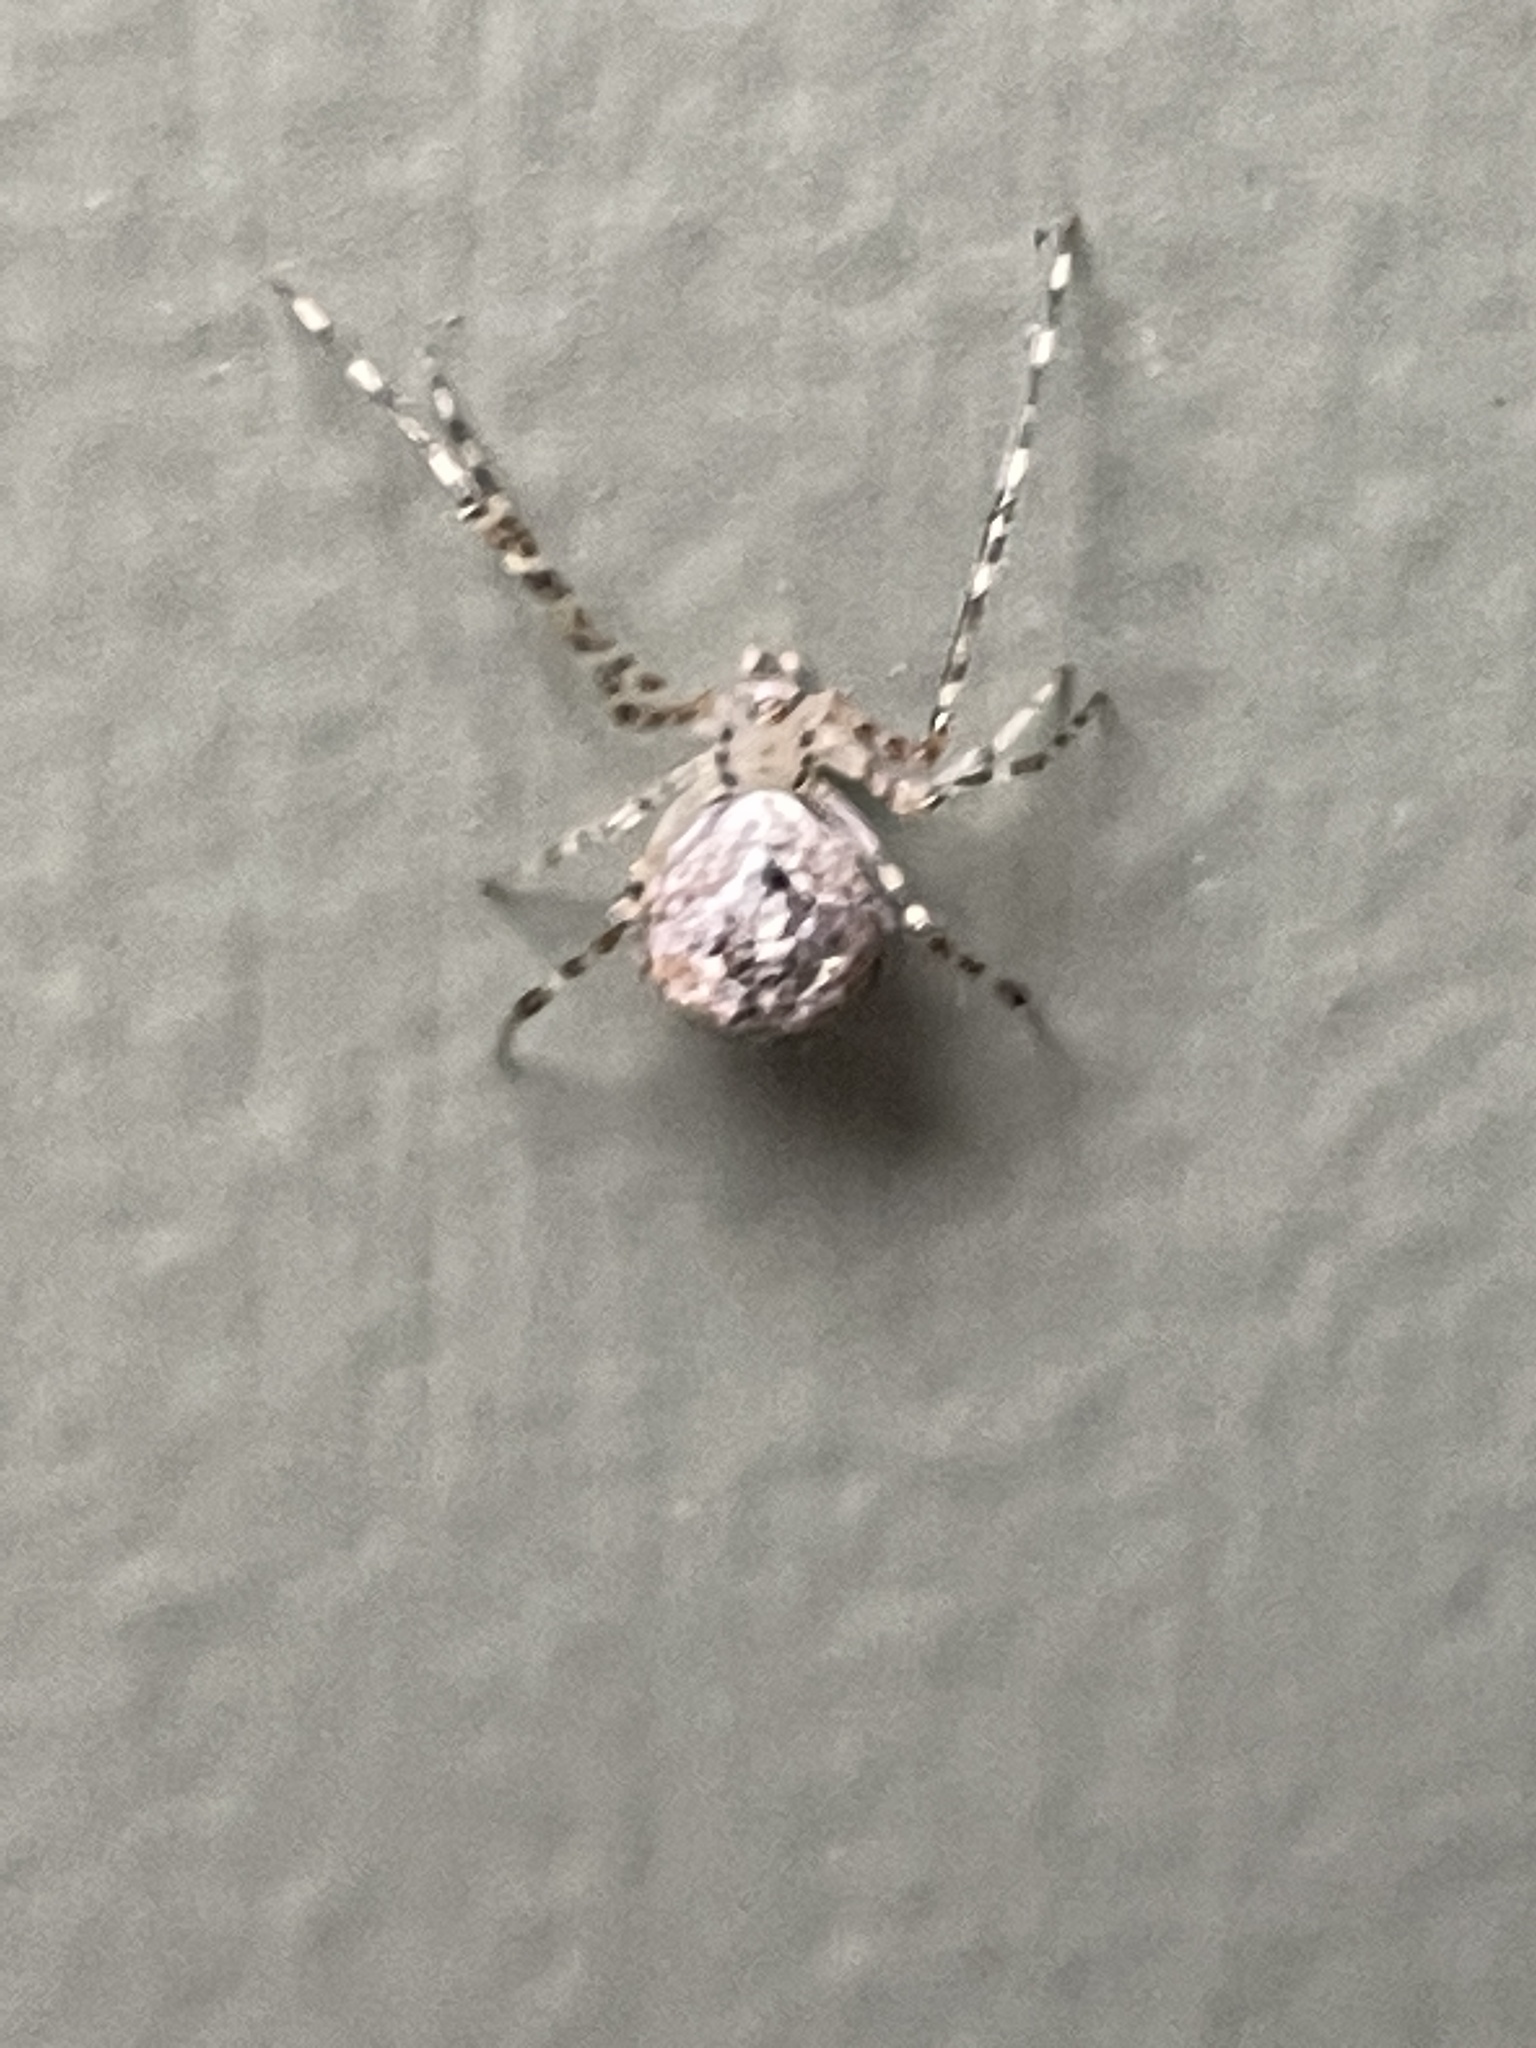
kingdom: Animalia
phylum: Arthropoda
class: Arachnida
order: Araneae
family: Theridiidae
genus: Cryptachaea
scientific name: Cryptachaea gigantipes
